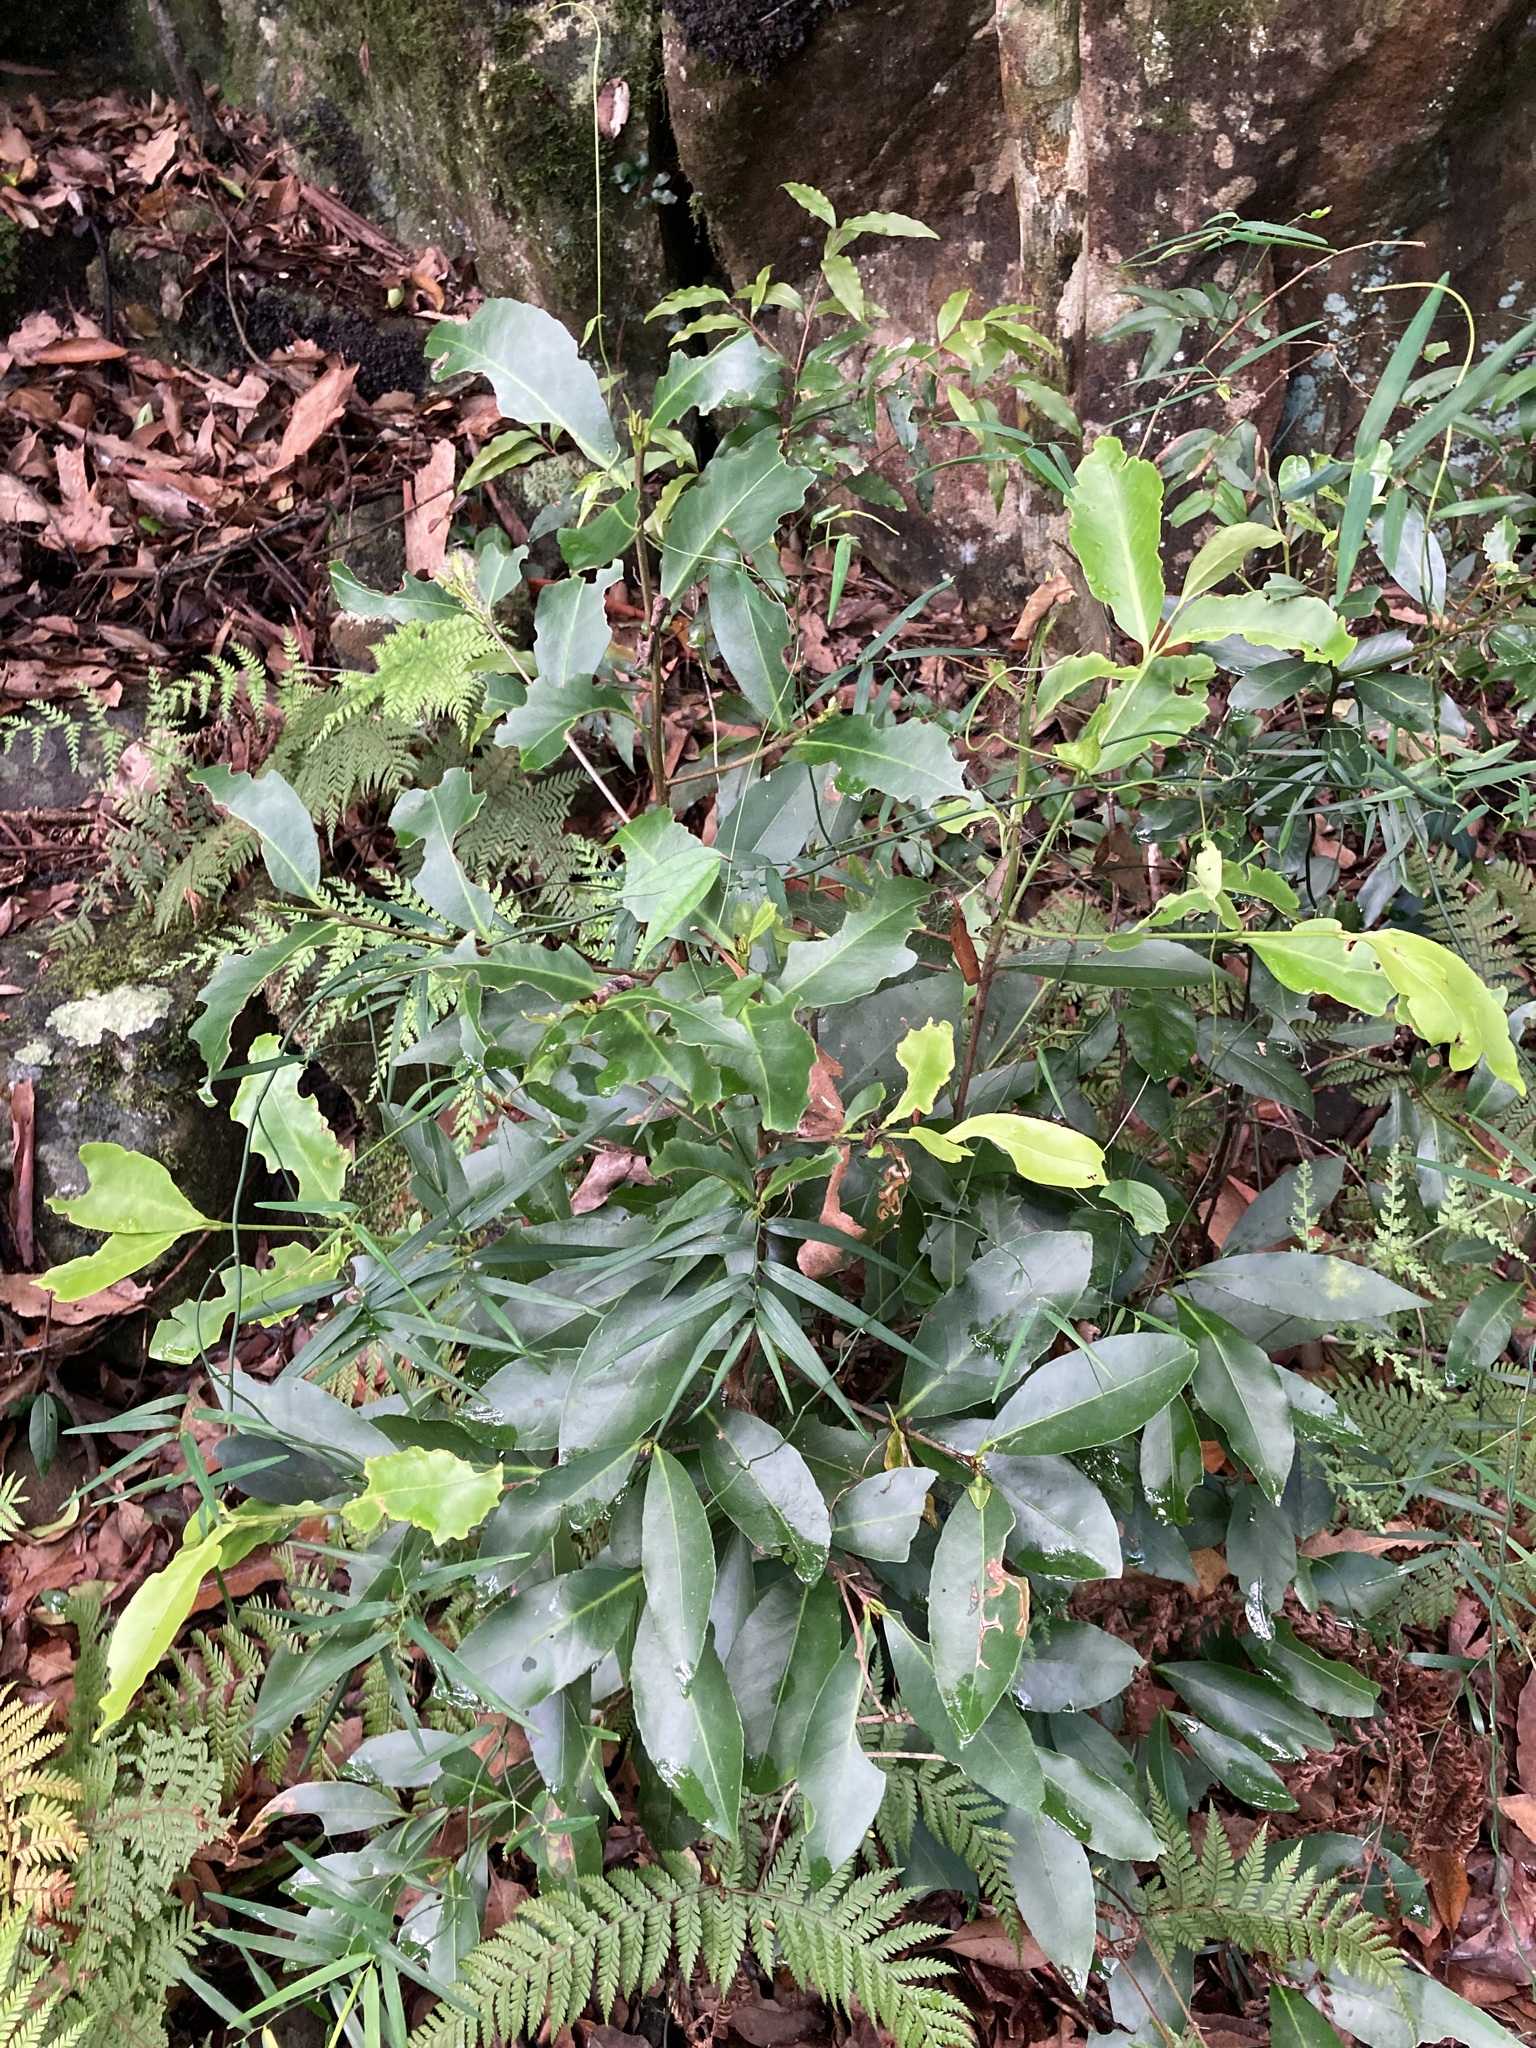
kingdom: Plantae
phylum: Tracheophyta
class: Magnoliopsida
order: Celastrales
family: Celastraceae
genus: Elaeodendron
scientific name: Elaeodendron australe
